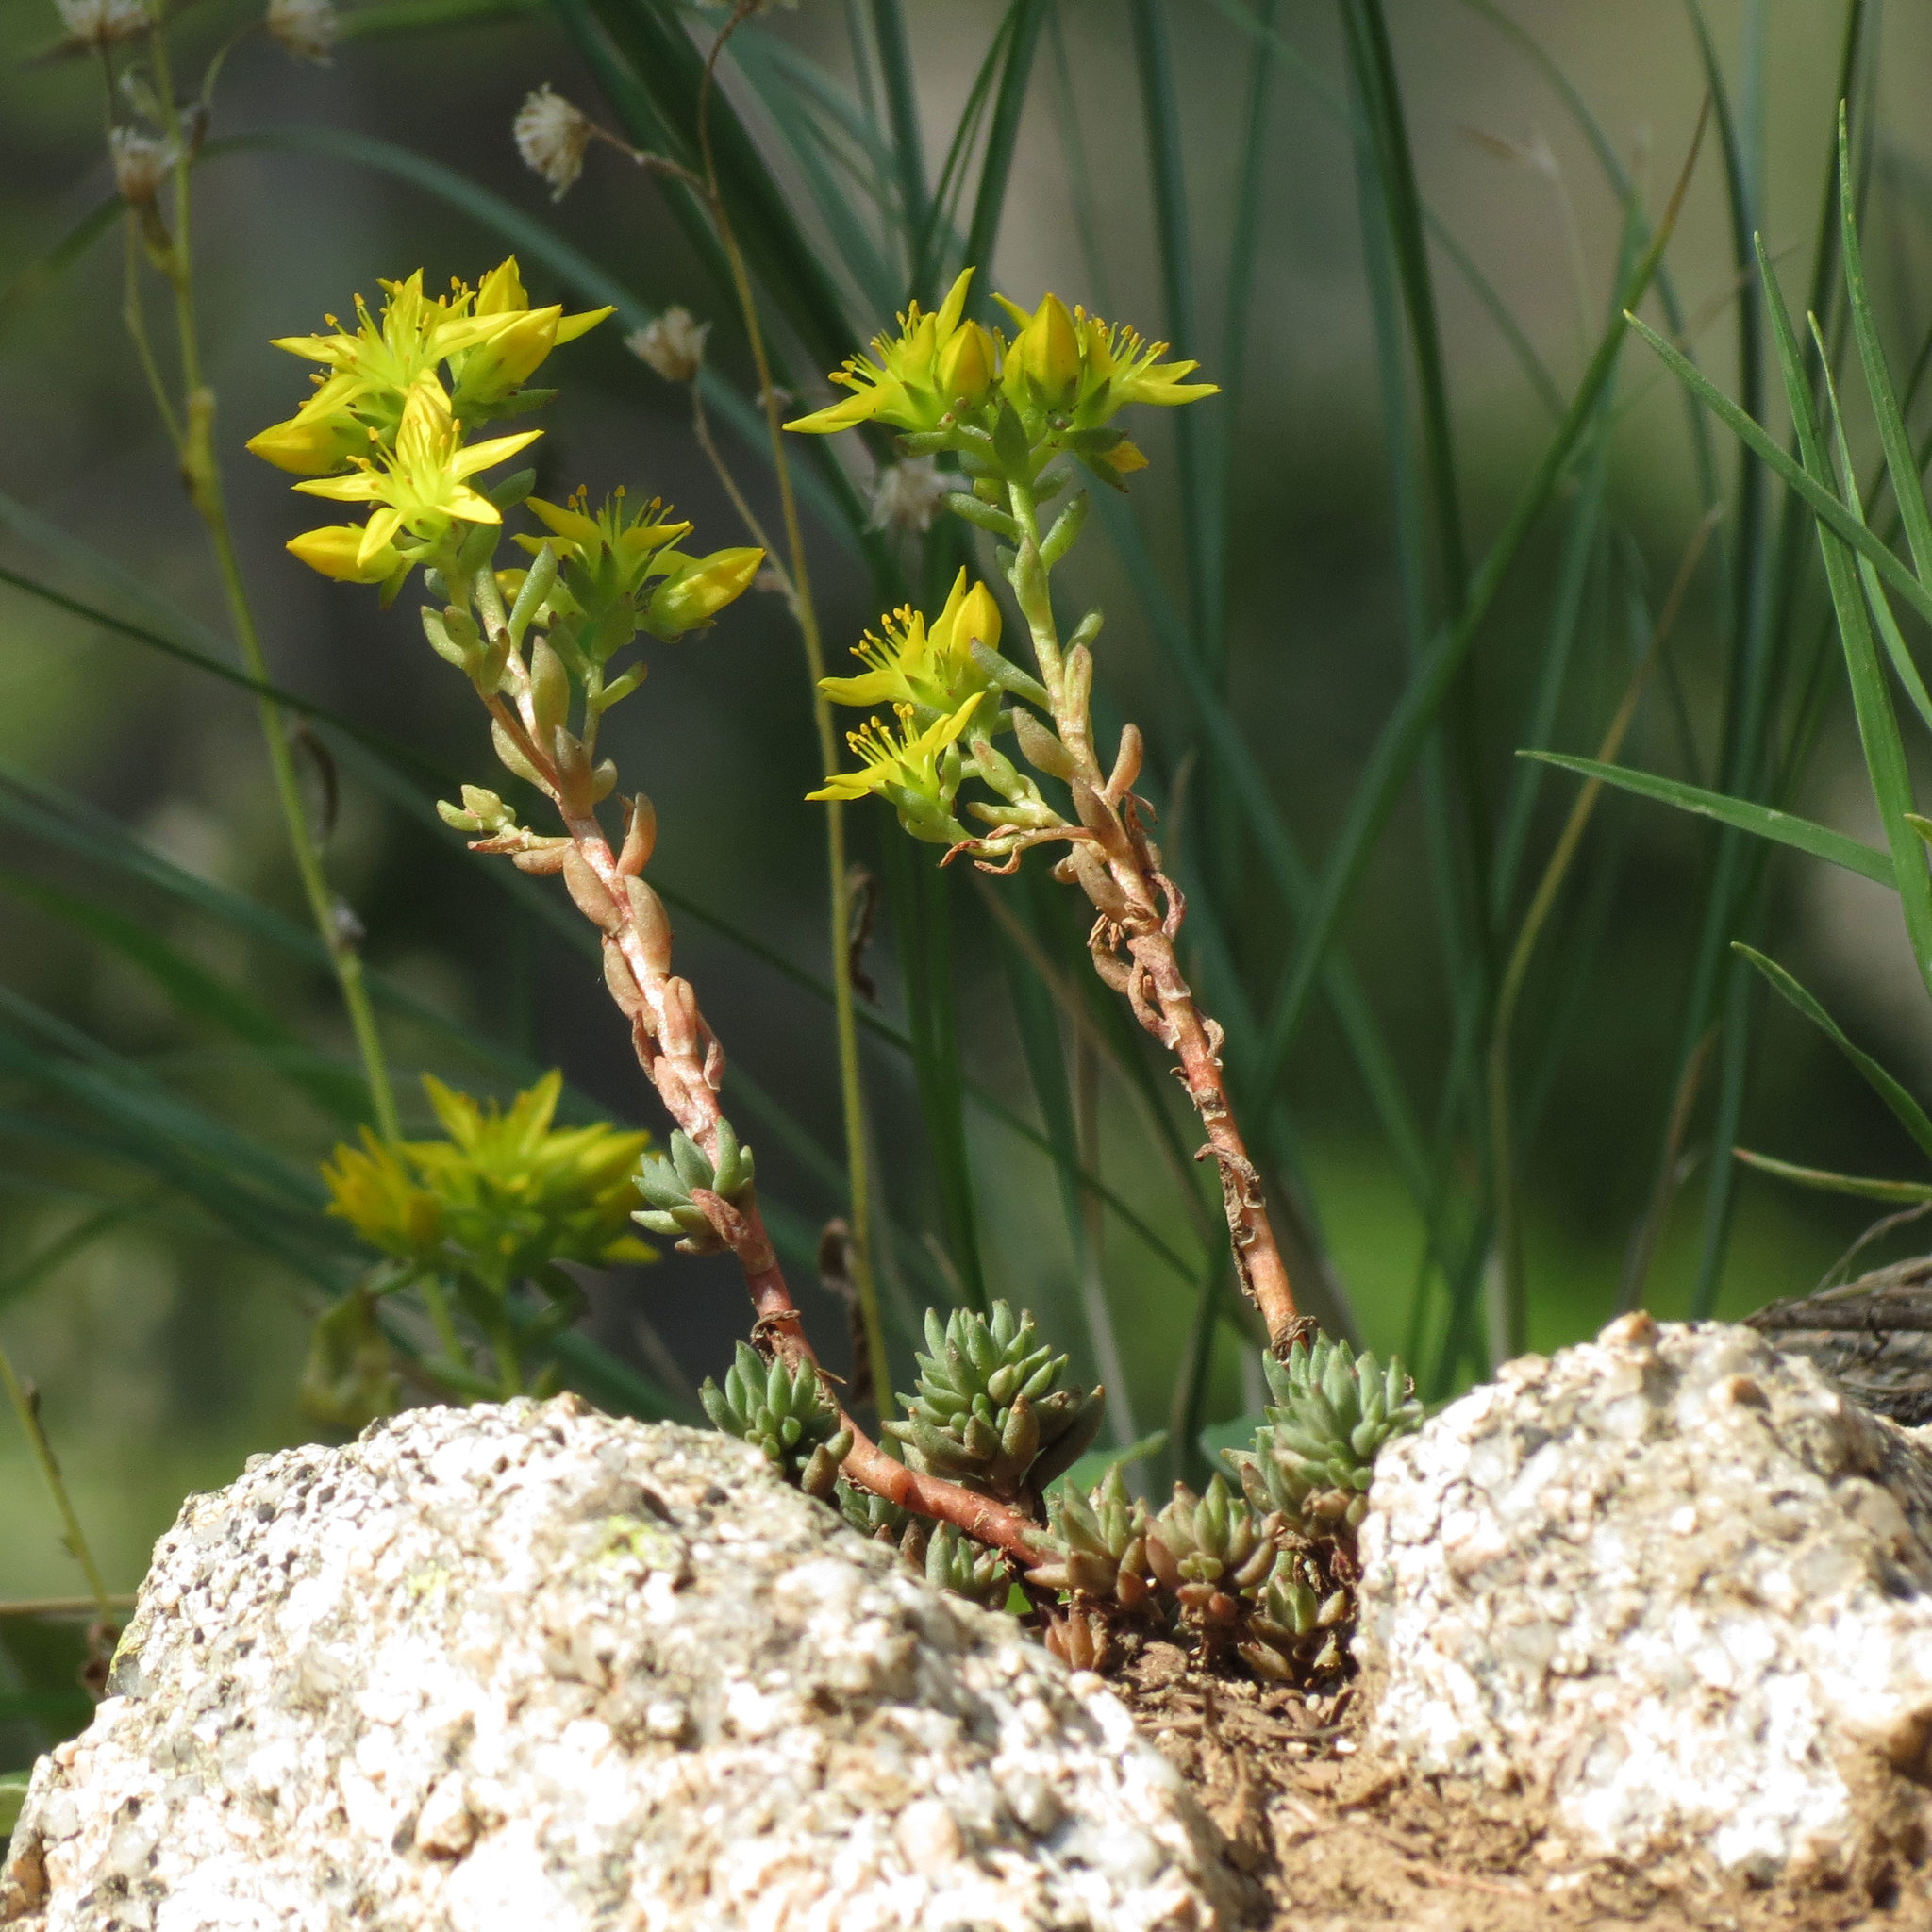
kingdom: Plantae
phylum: Tracheophyta
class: Magnoliopsida
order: Saxifragales
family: Crassulaceae
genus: Sedum
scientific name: Sedum lanceolatum
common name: Common stonecrop
